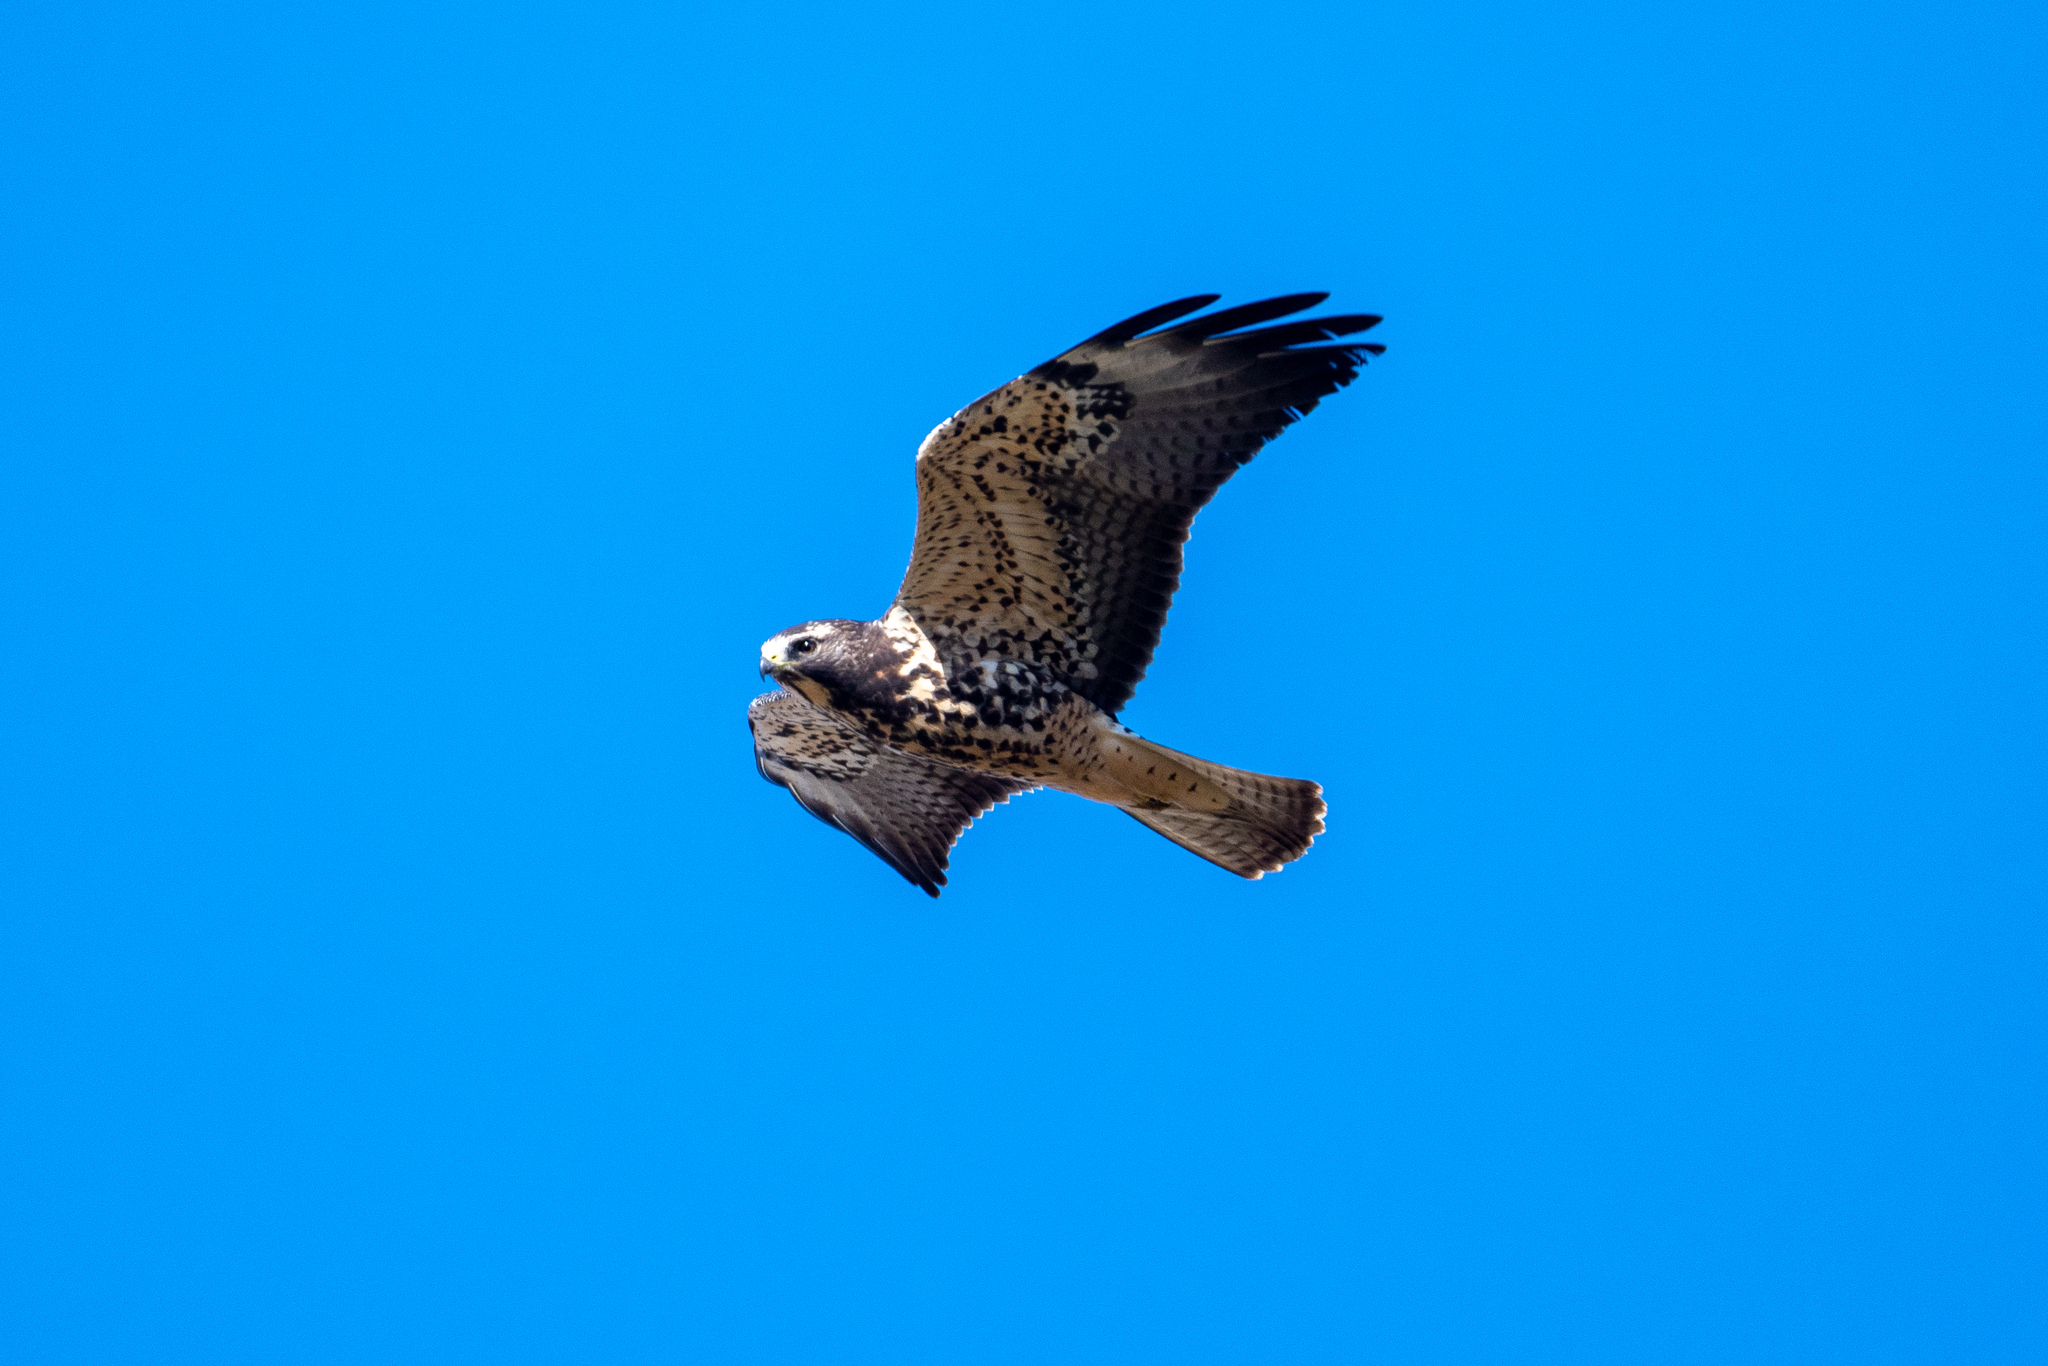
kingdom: Animalia
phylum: Chordata
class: Aves
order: Accipitriformes
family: Accipitridae
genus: Buteo
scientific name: Buteo swainsoni
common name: Swainson's hawk
